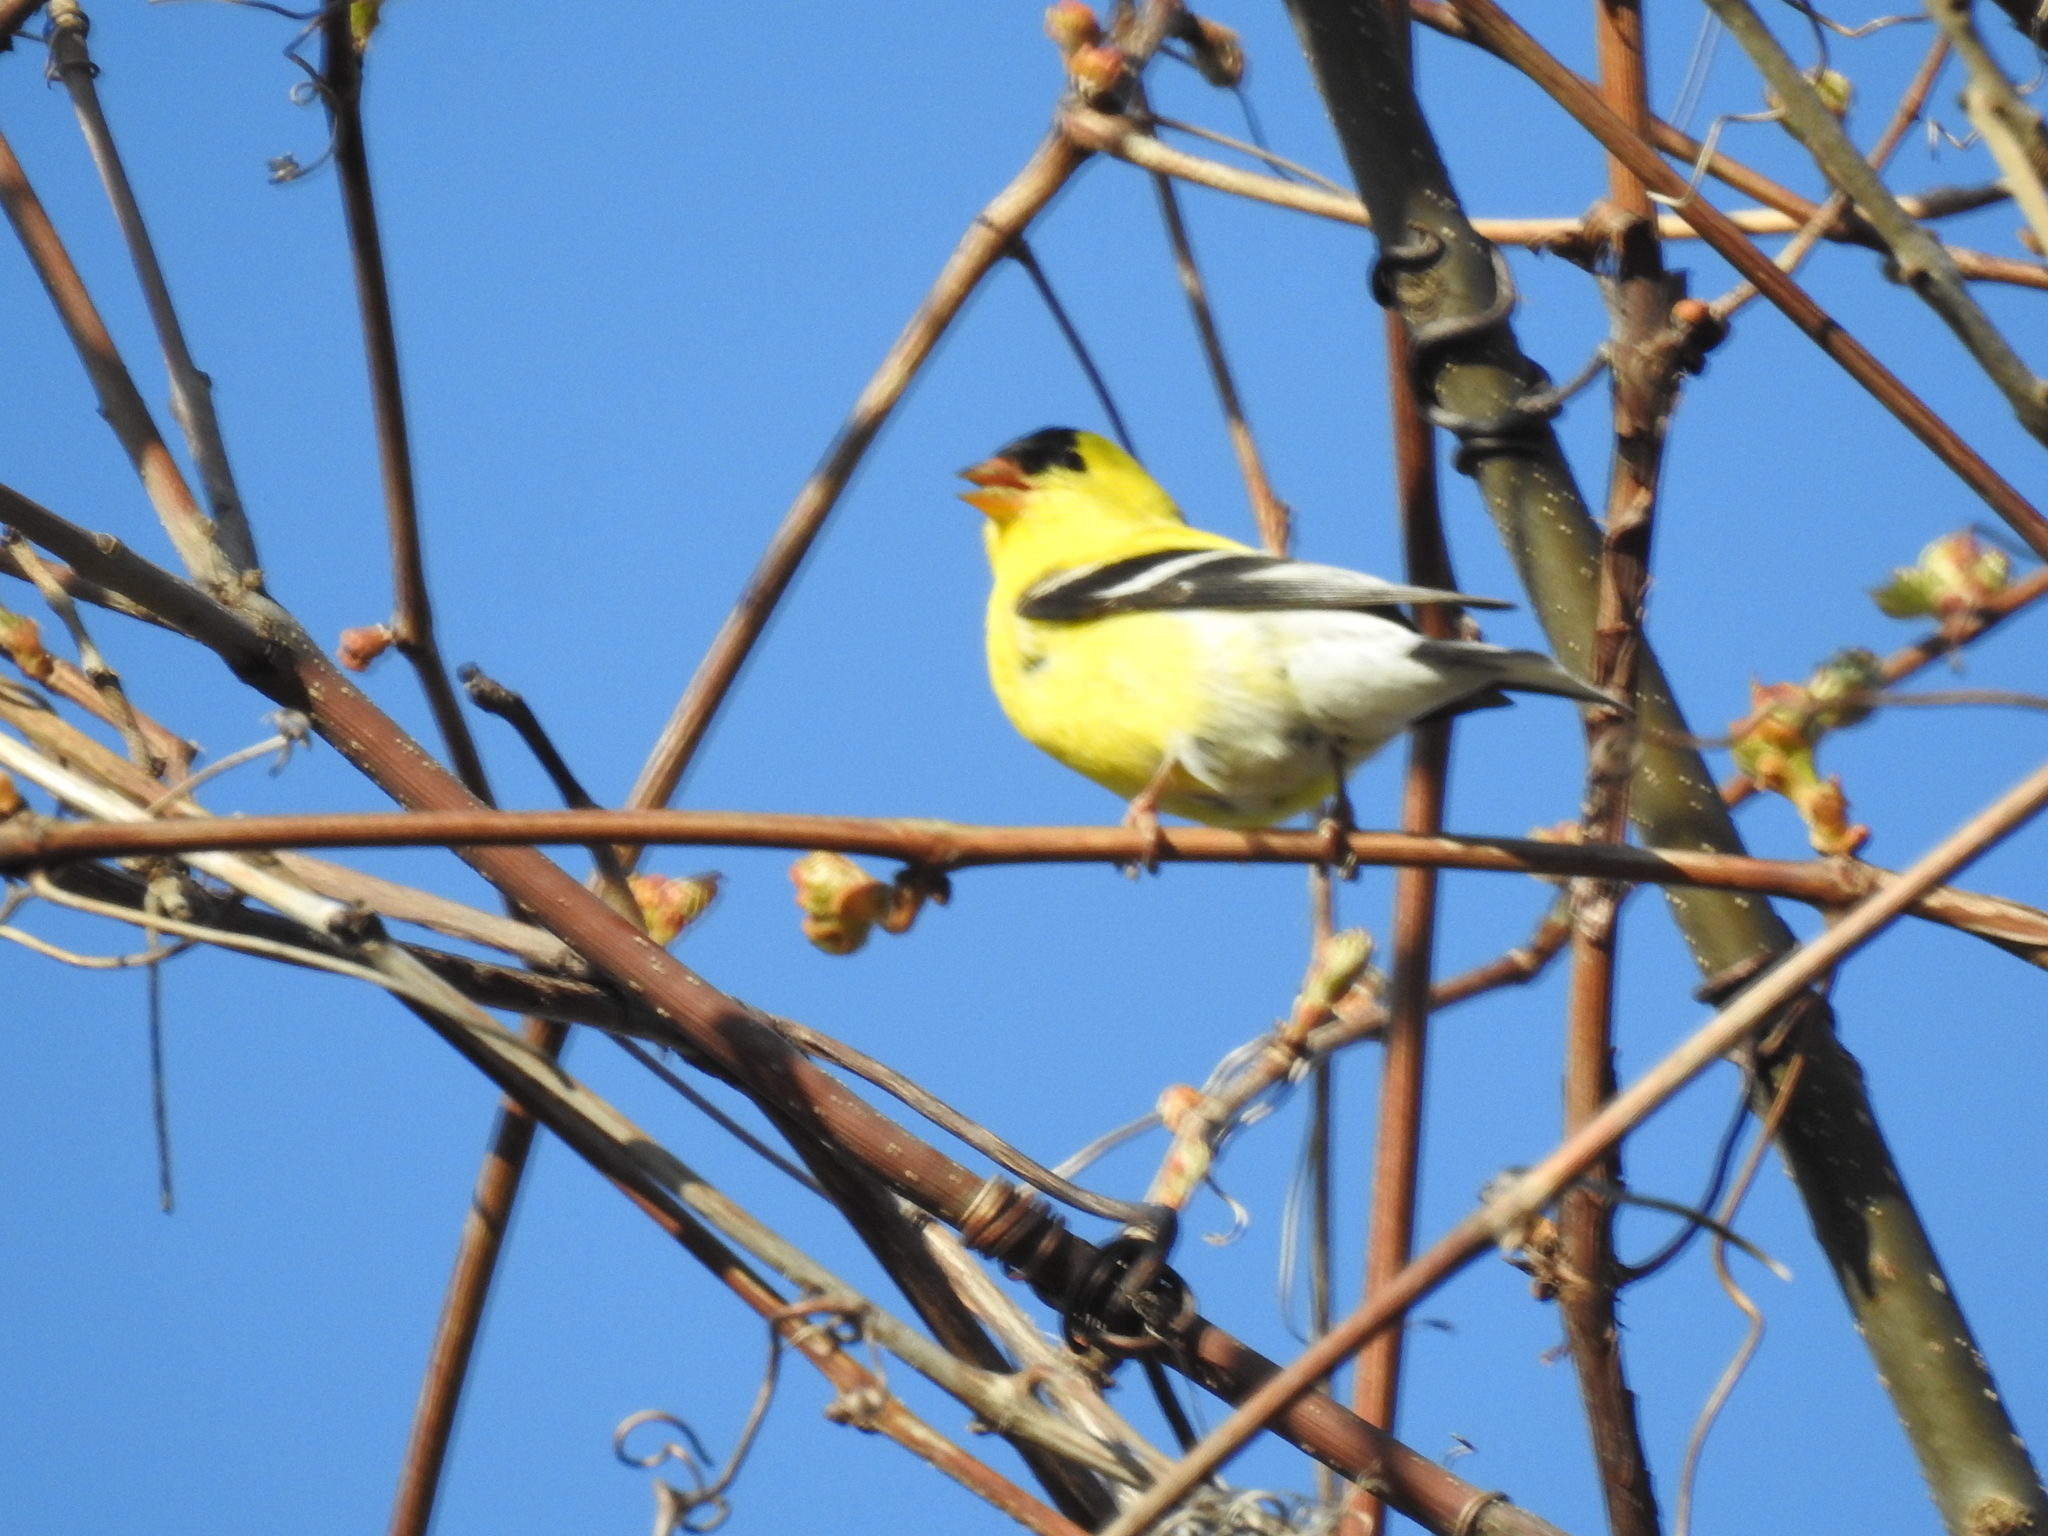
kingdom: Animalia
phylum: Chordata
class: Aves
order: Passeriformes
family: Fringillidae
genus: Spinus
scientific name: Spinus tristis
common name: American goldfinch
